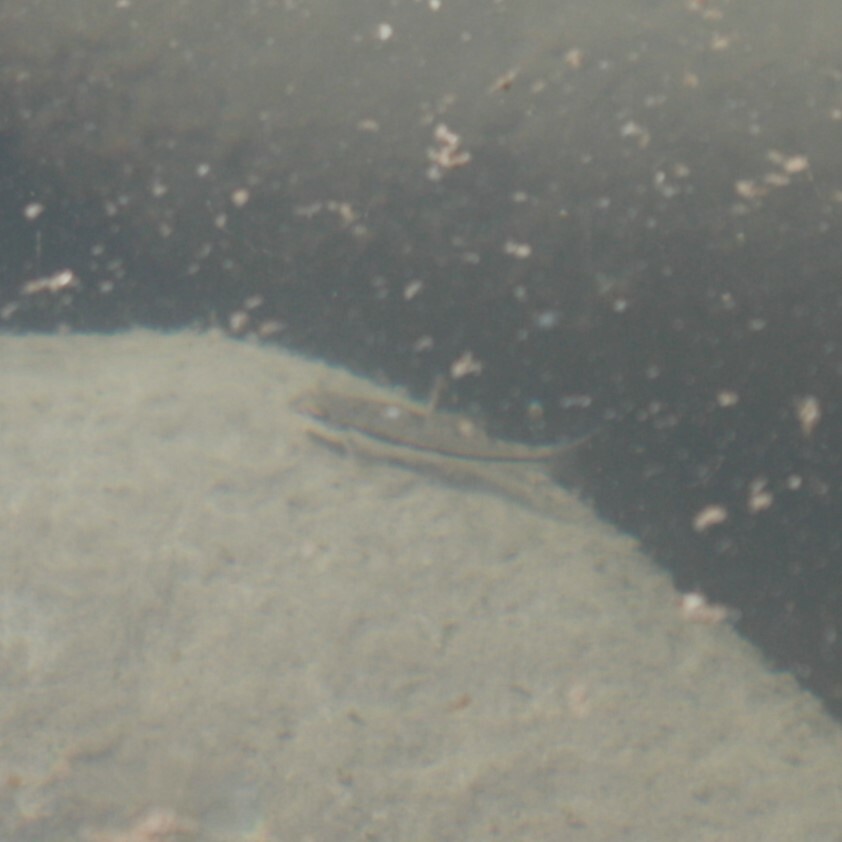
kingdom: Animalia
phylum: Chordata
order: Cypriniformes
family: Cyprinidae
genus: Microphysogobio
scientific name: Microphysogobio alticorpus
